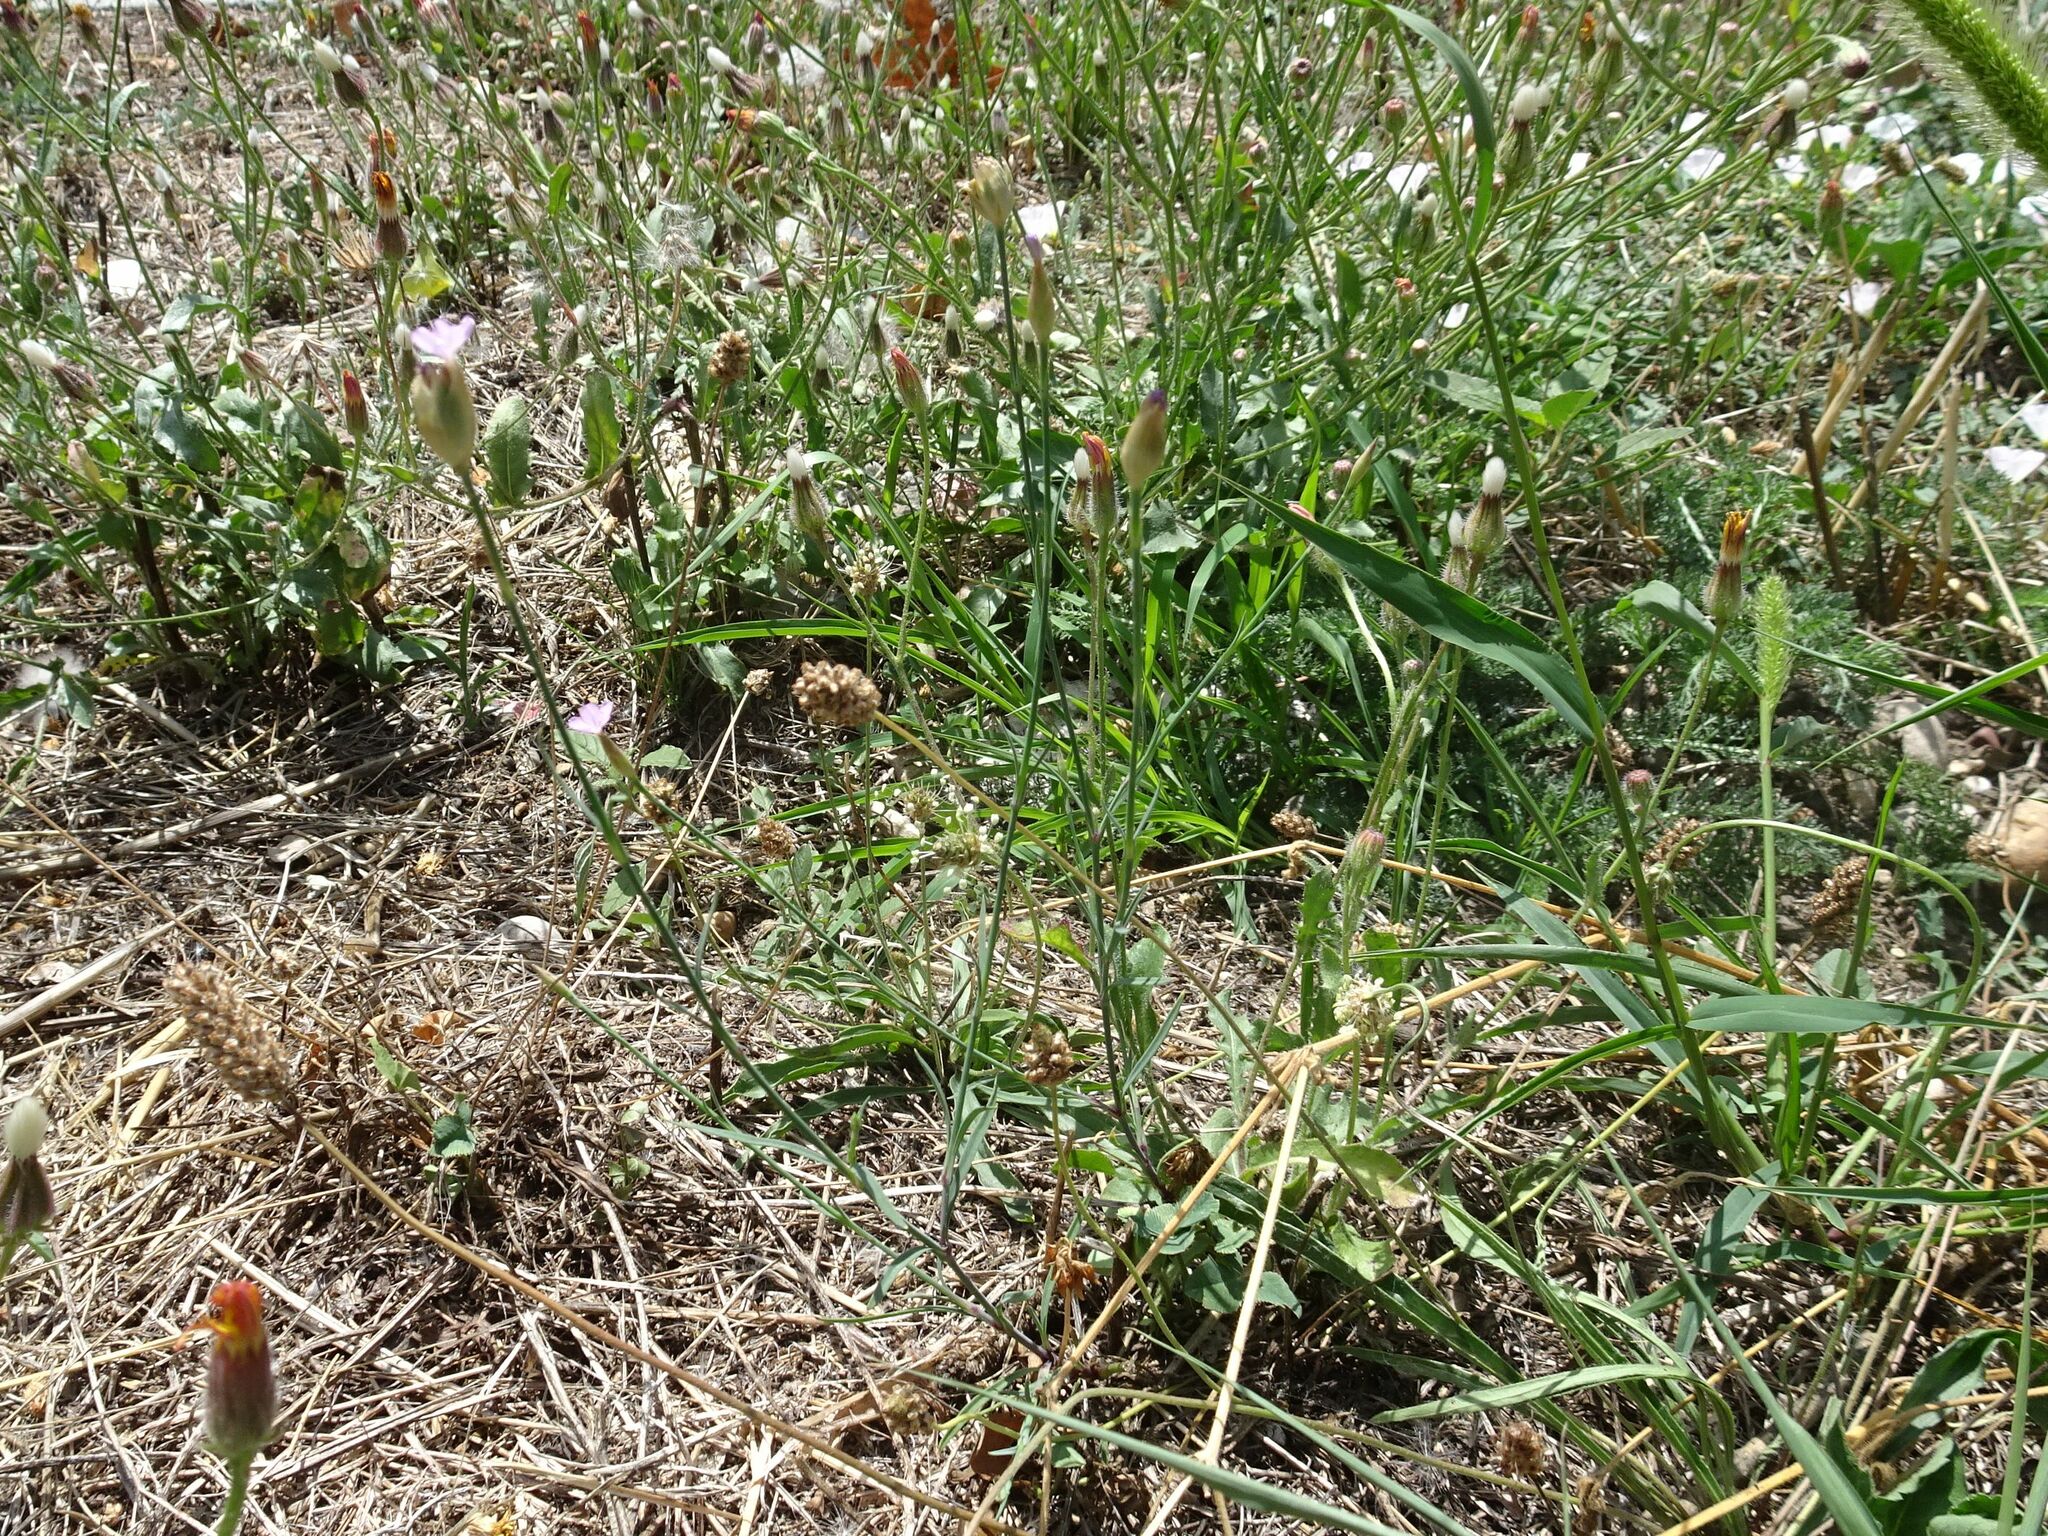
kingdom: Plantae
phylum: Tracheophyta
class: Magnoliopsida
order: Caryophyllales
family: Caryophyllaceae
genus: Petrorhagia
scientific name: Petrorhagia prolifera
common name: Proliferous pink
